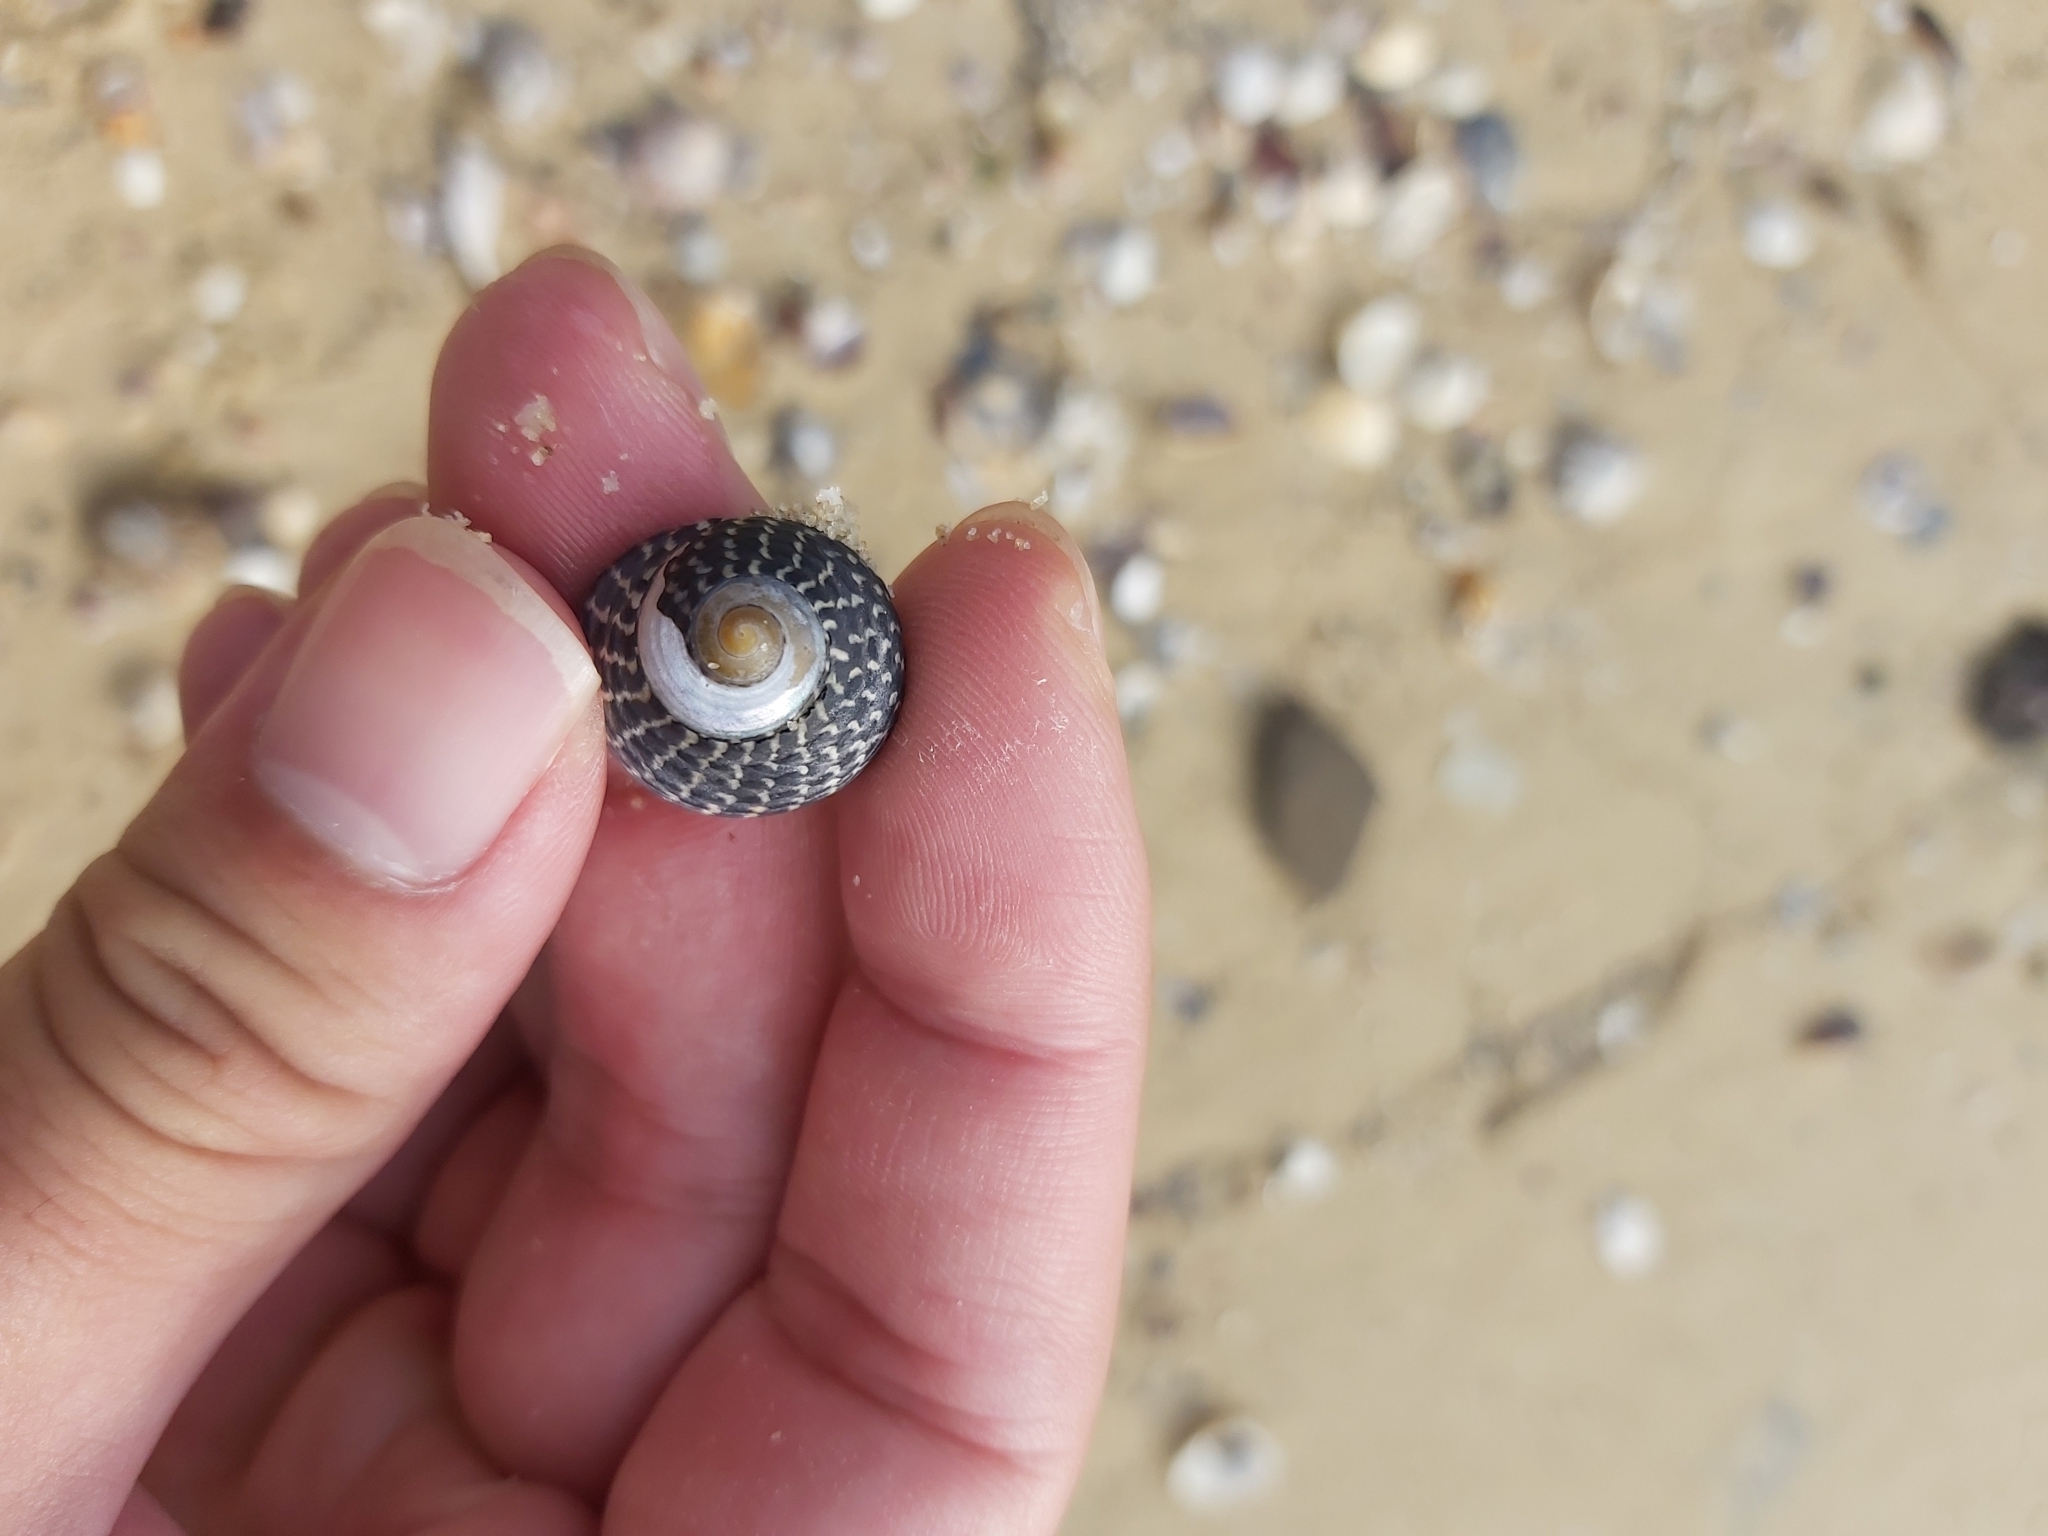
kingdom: Animalia
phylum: Mollusca
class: Gastropoda
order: Trochida
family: Trochidae
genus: Diloma
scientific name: Diloma concameratum
